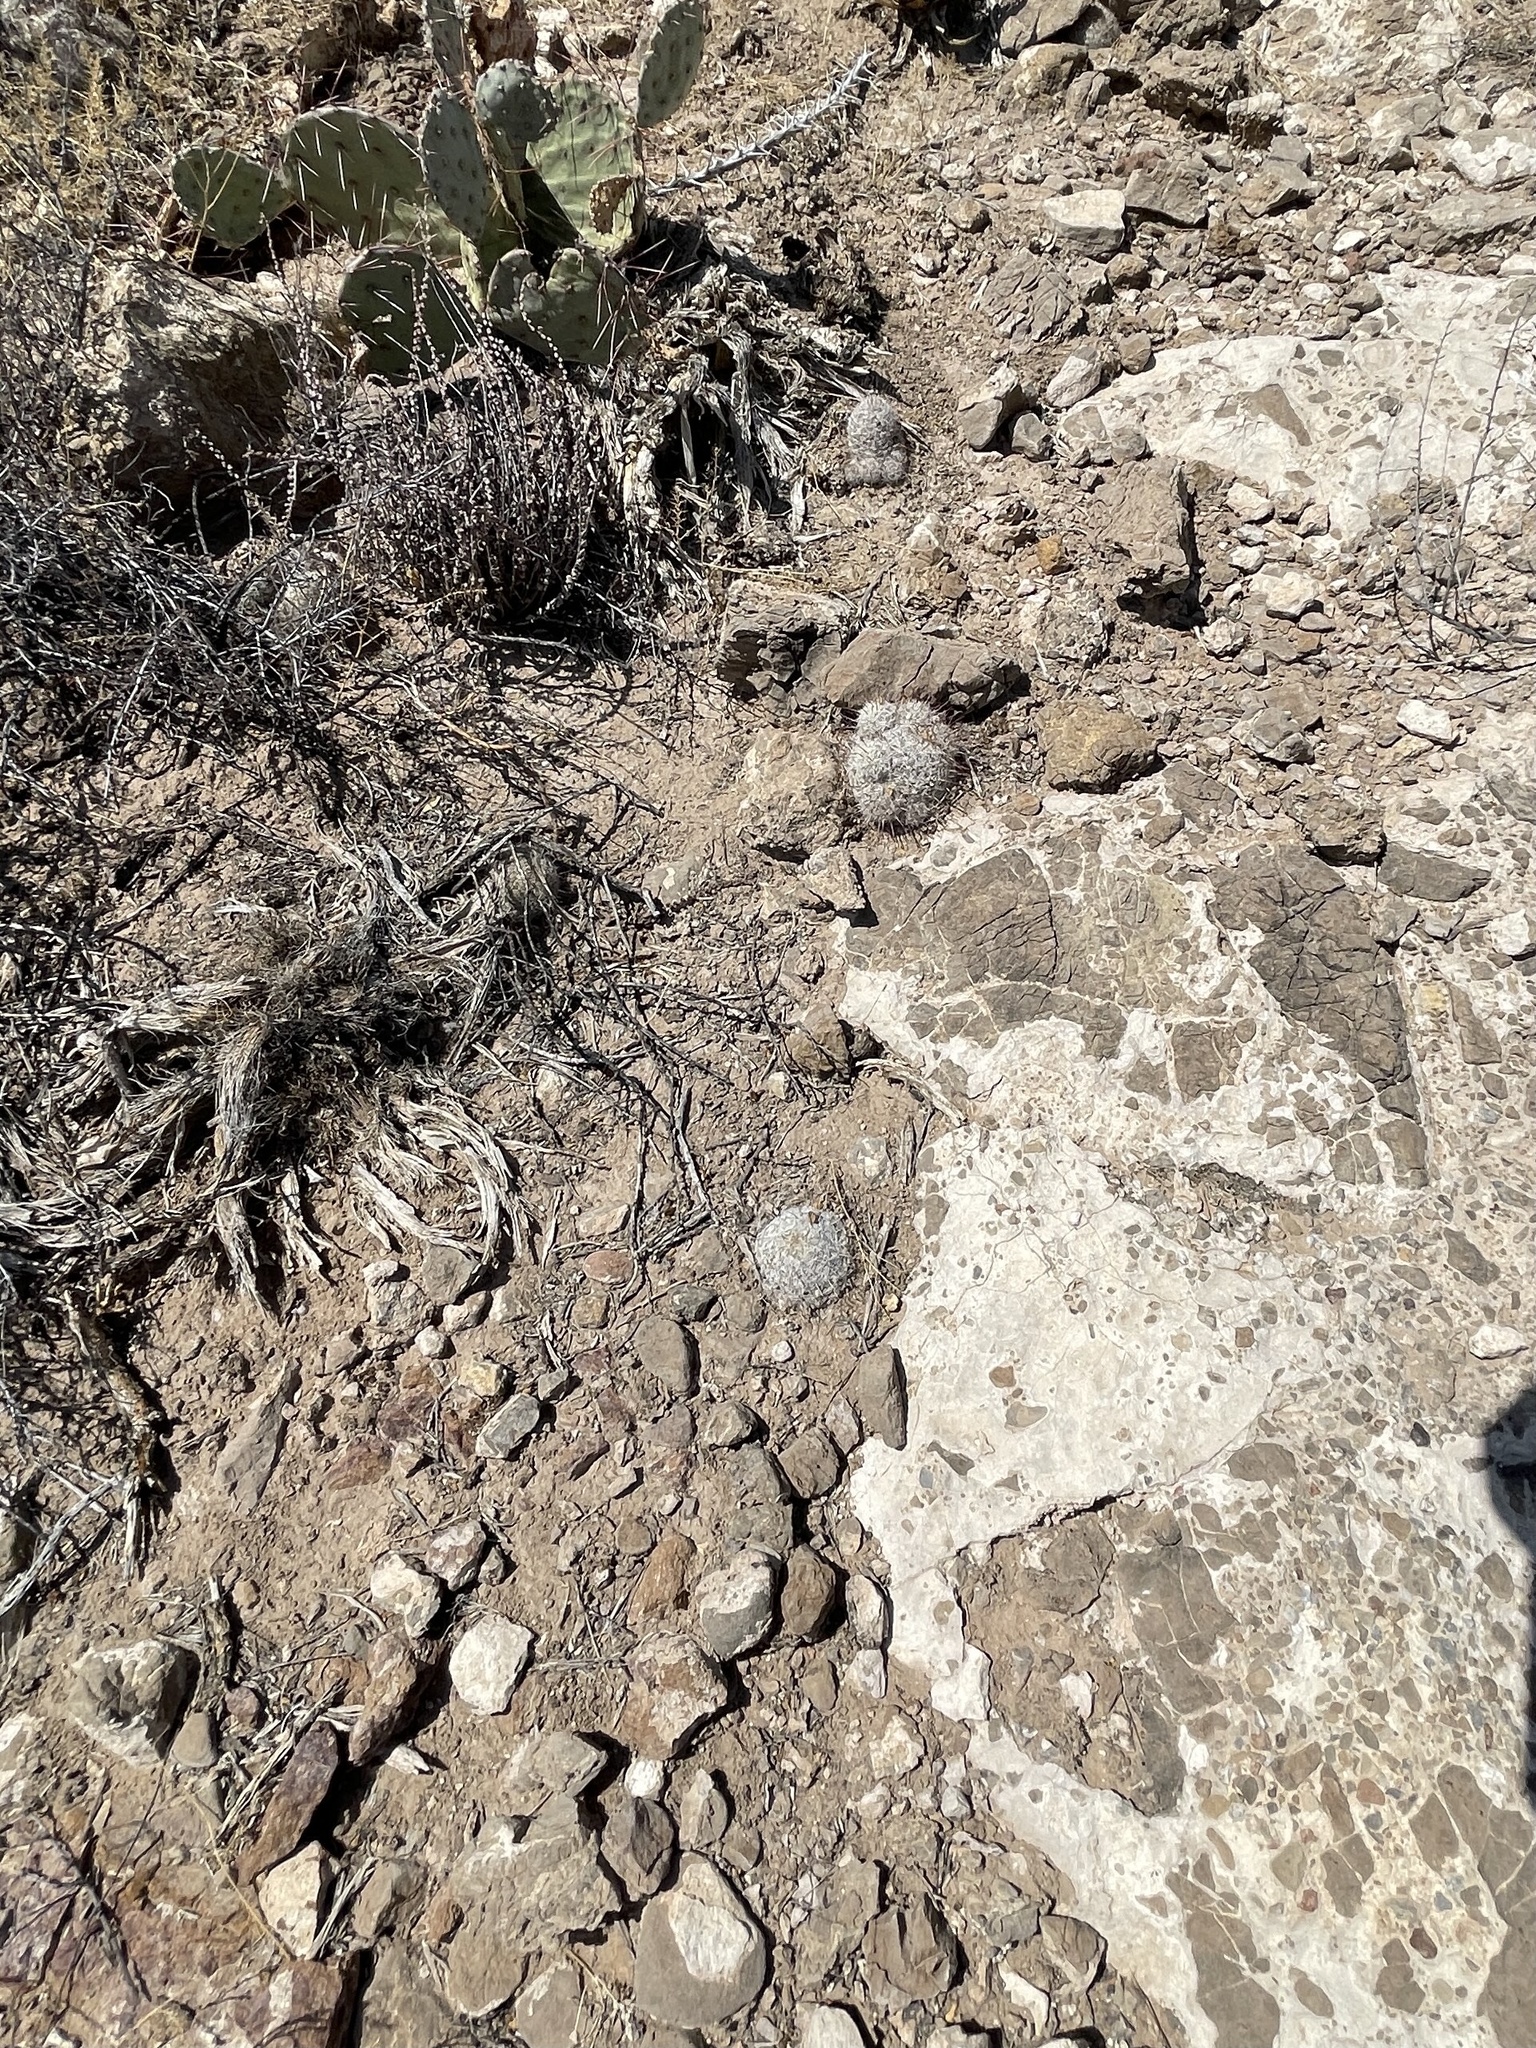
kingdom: Plantae
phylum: Tracheophyta
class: Magnoliopsida
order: Caryophyllales
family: Cactaceae
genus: Cochemiea
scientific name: Cochemiea grahamii
